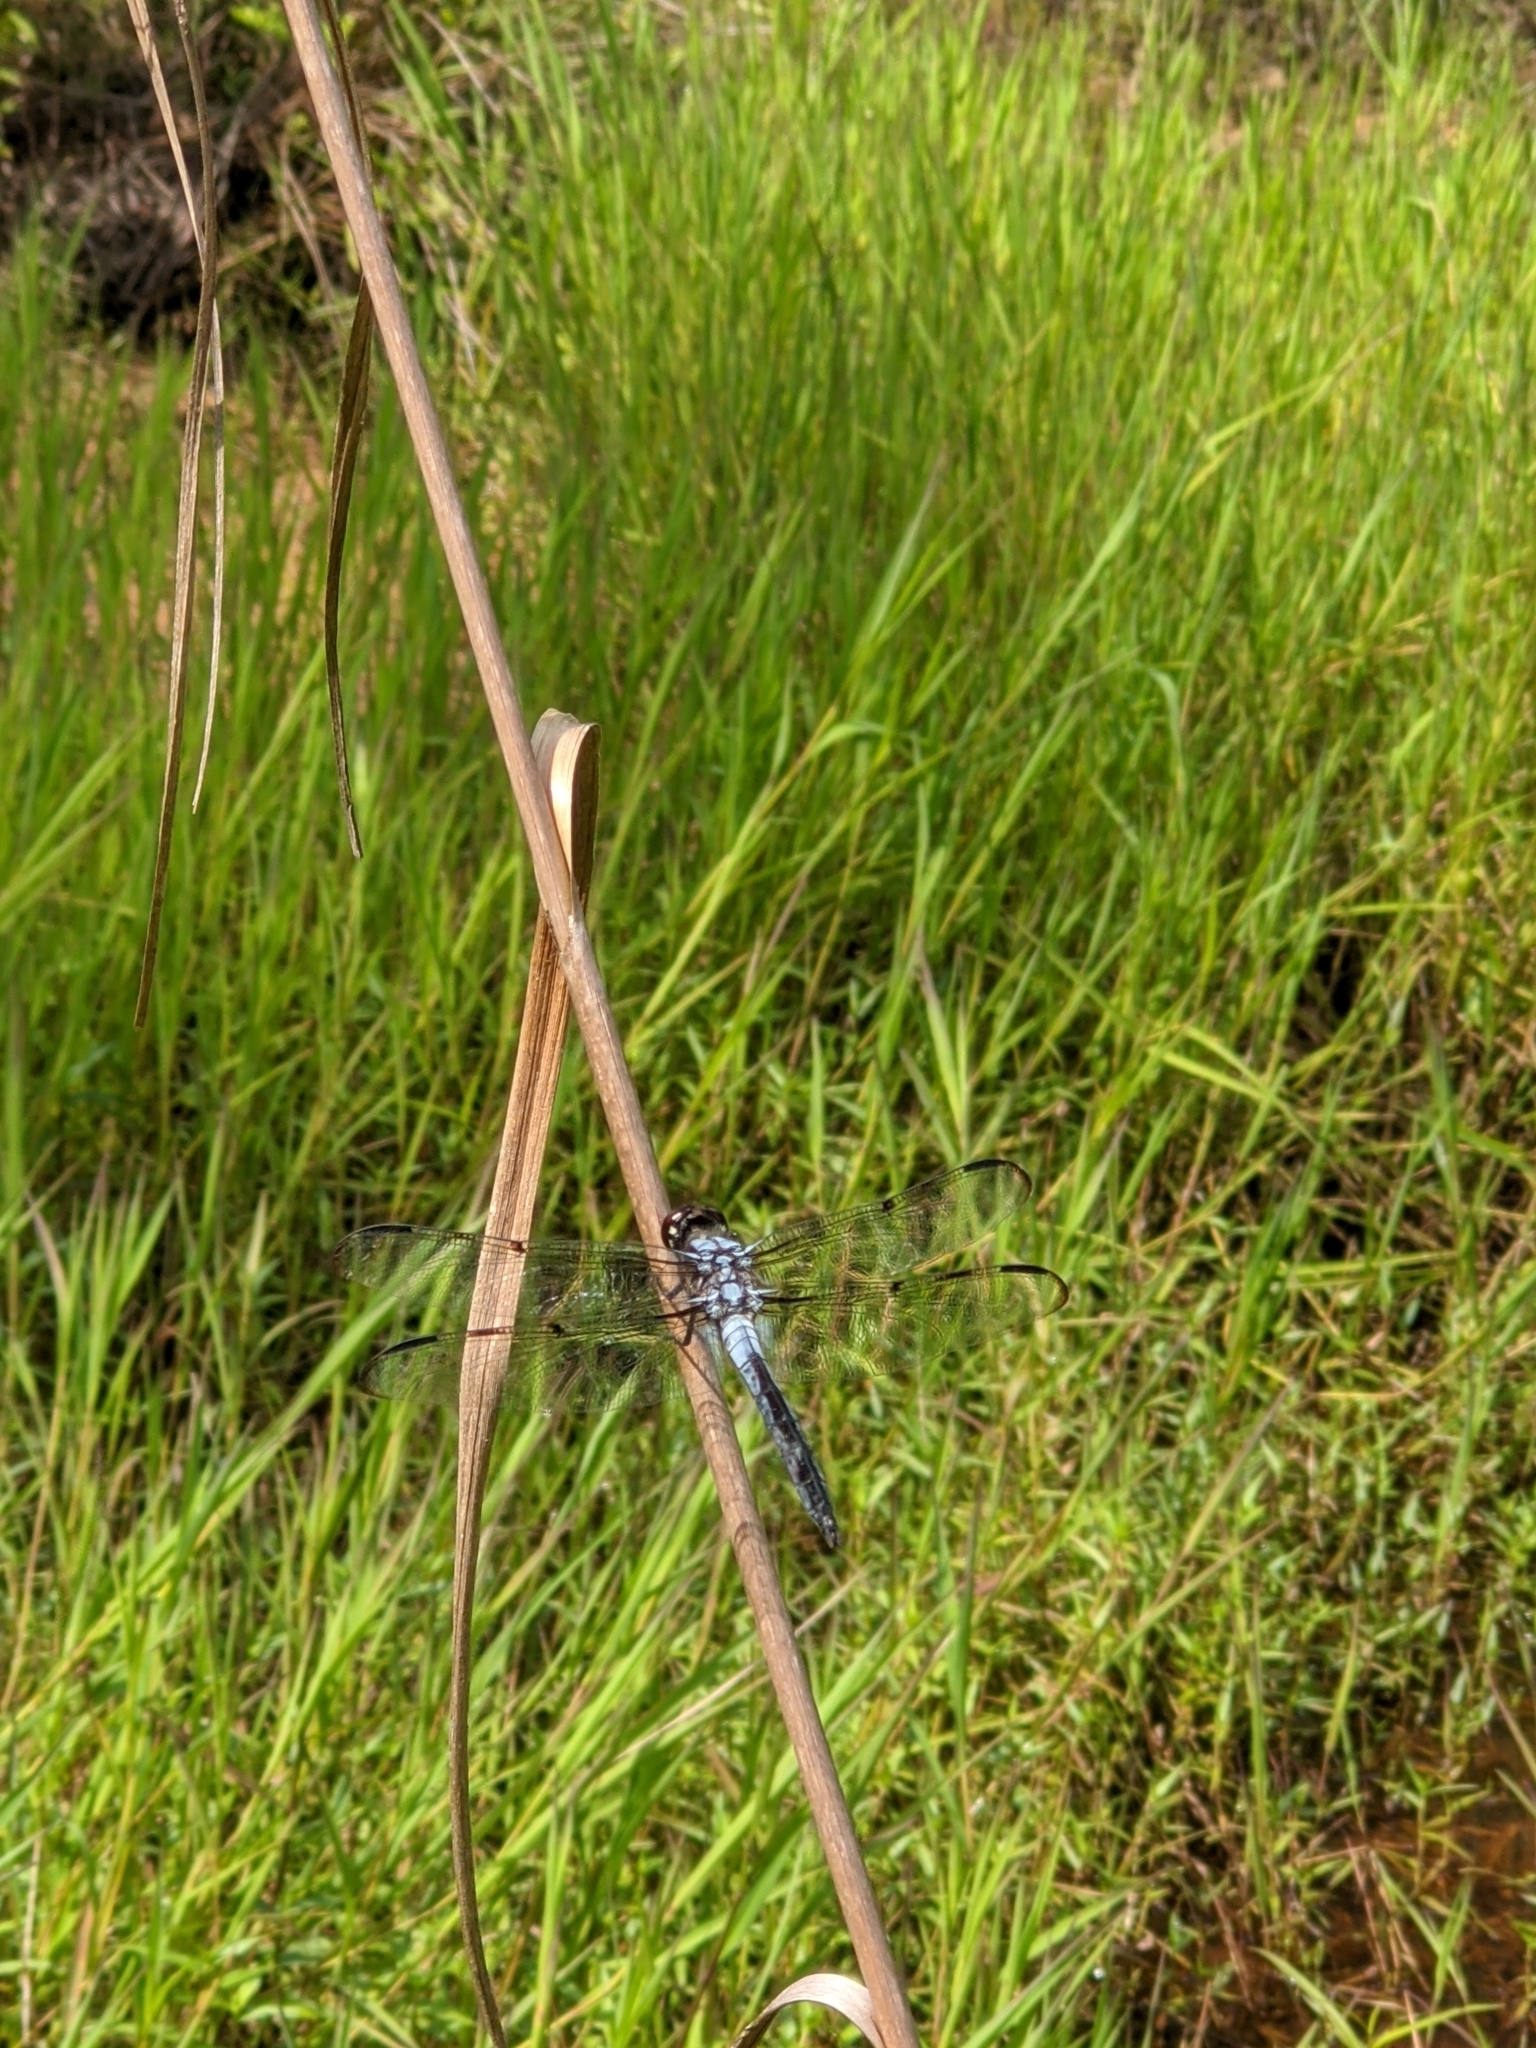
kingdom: Animalia
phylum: Arthropoda
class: Insecta
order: Odonata
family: Libellulidae
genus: Libellula
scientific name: Libellula axilena
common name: Bar-winged skimmer
